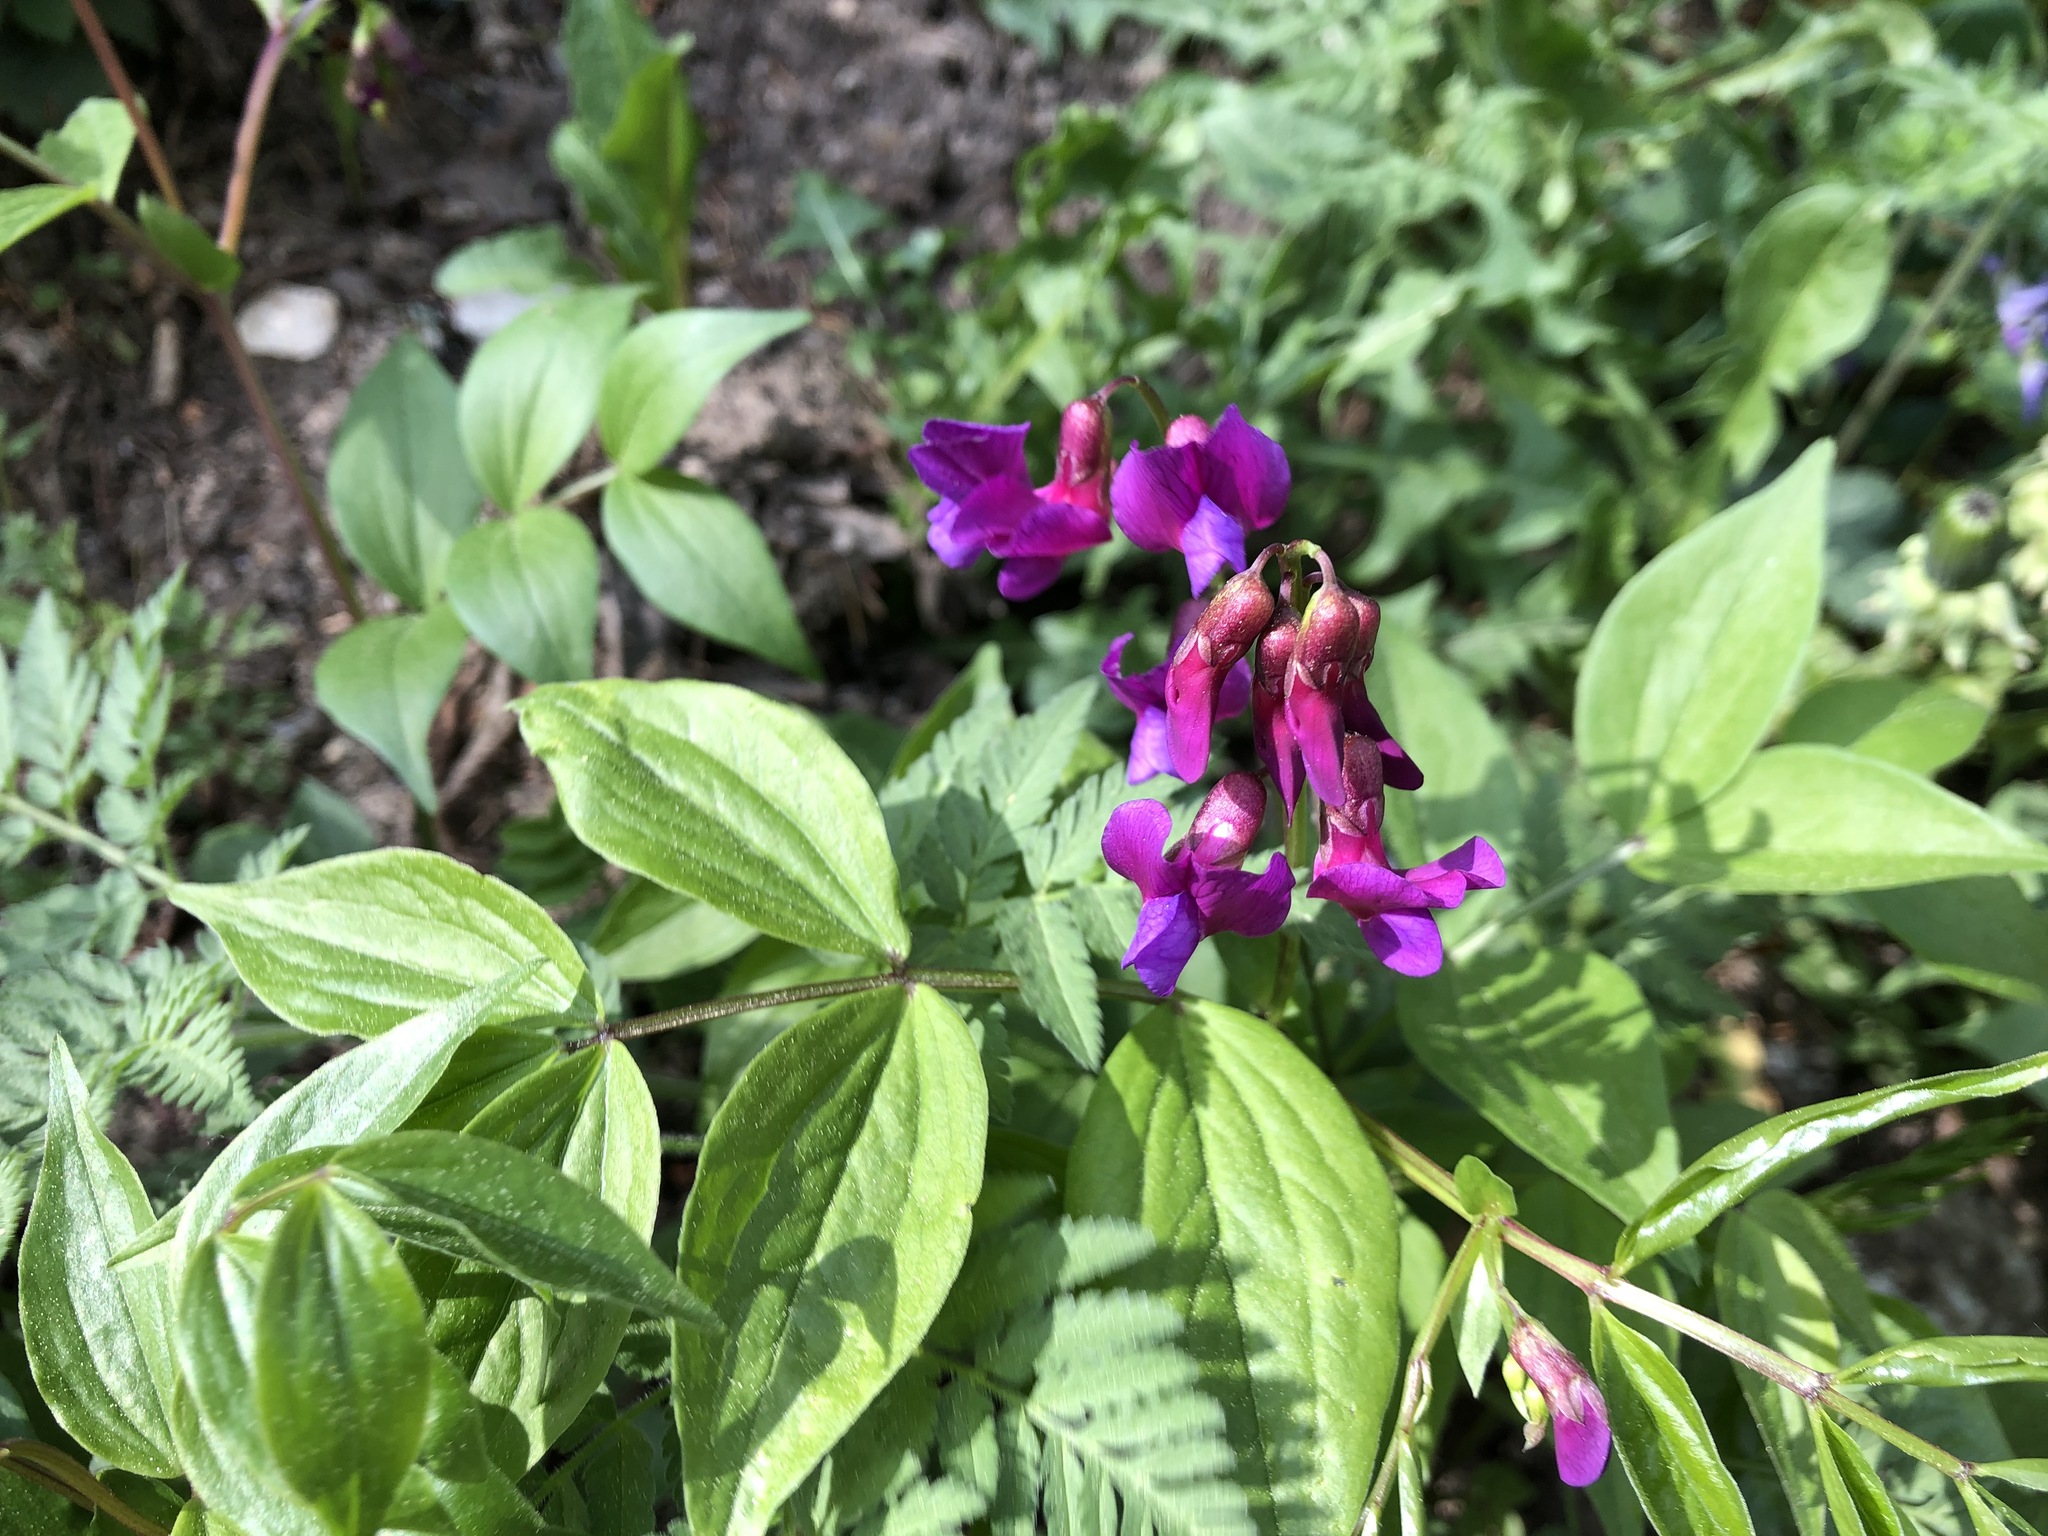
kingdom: Plantae
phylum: Tracheophyta
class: Magnoliopsida
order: Fabales
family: Fabaceae
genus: Lathyrus
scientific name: Lathyrus vernus
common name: Spring pea
